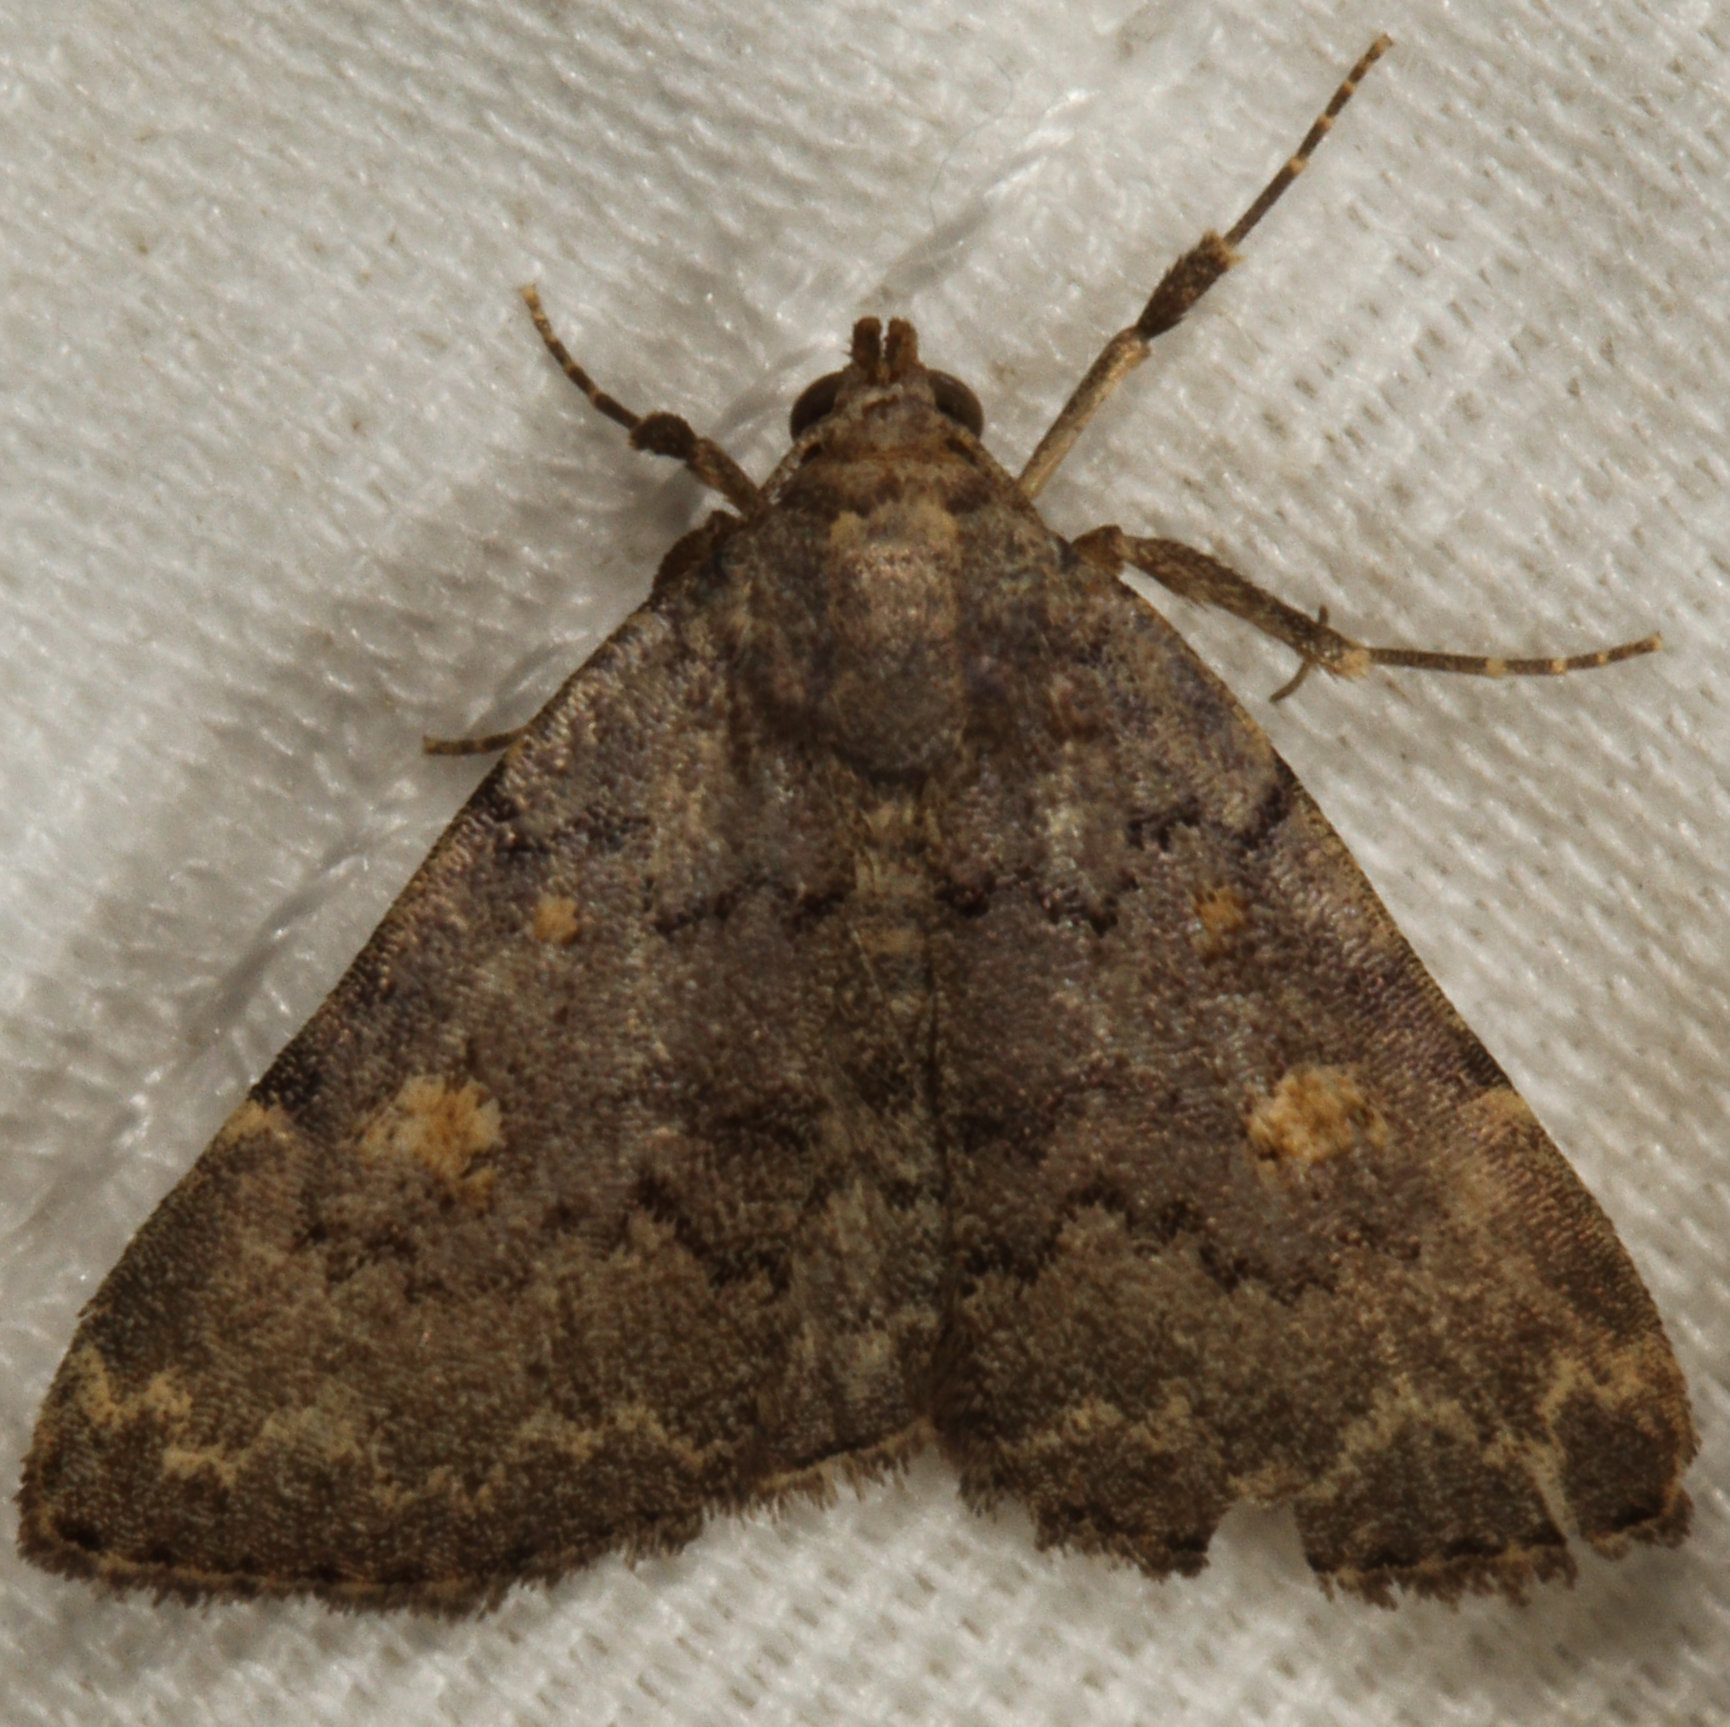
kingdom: Animalia
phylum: Arthropoda
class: Insecta
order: Lepidoptera
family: Erebidae
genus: Idia
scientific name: Idia aemula
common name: Common idia moth
